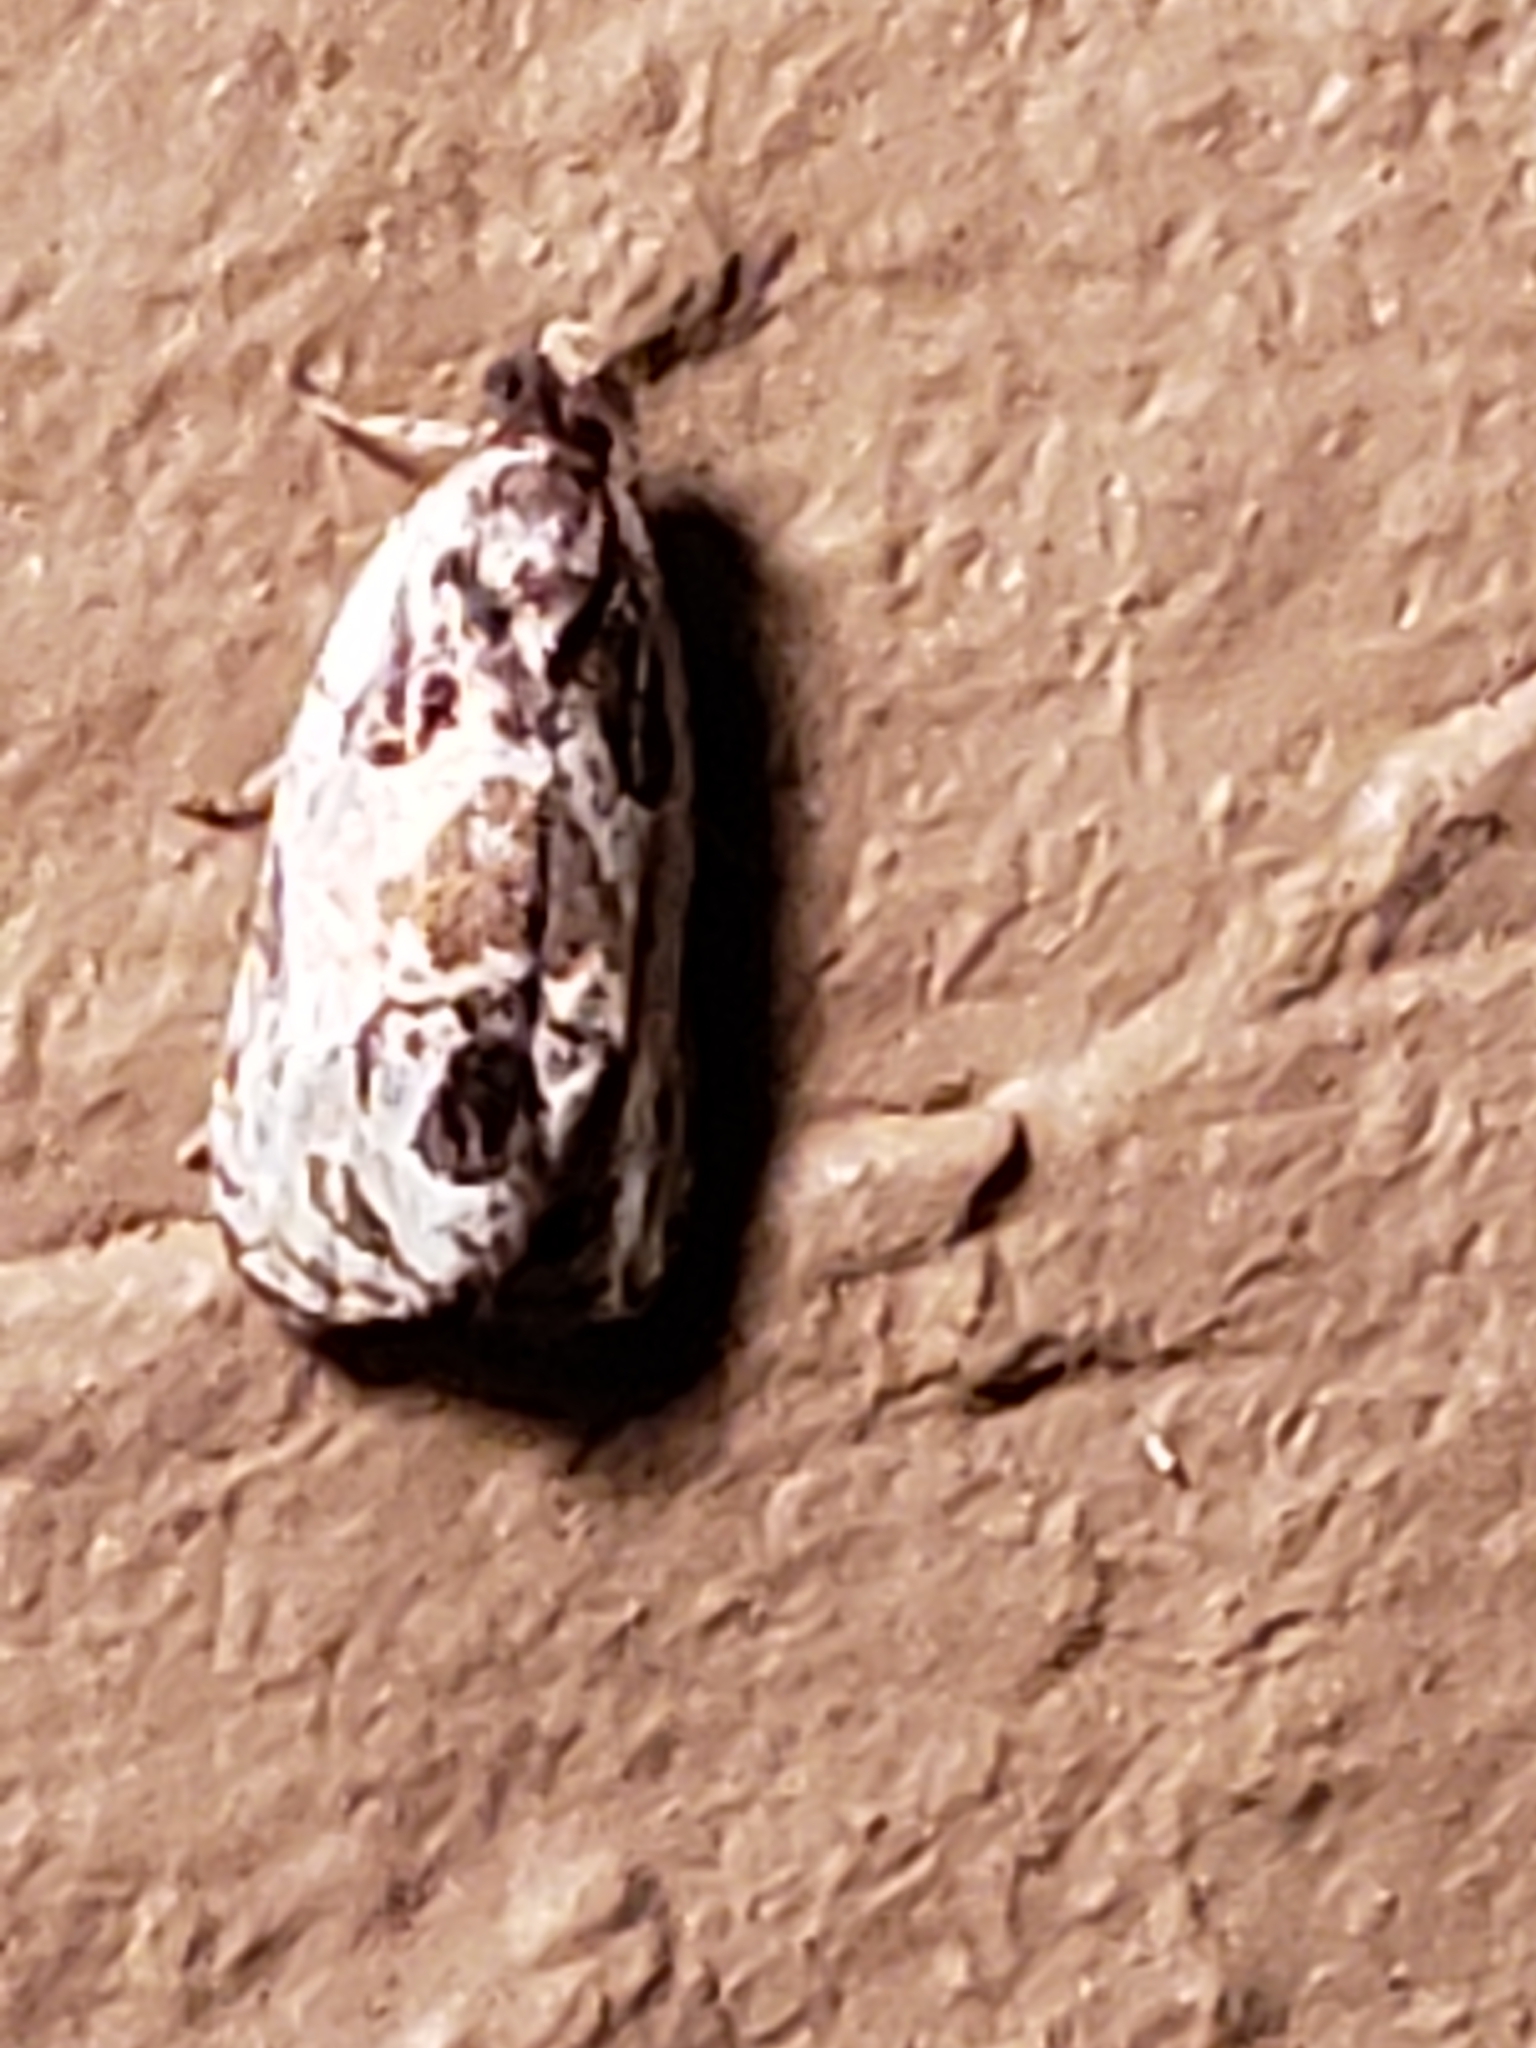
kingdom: Animalia
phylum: Arthropoda
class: Insecta
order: Lepidoptera
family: Tortricidae
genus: Olethreutes
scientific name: Olethreutes griseoalbana
